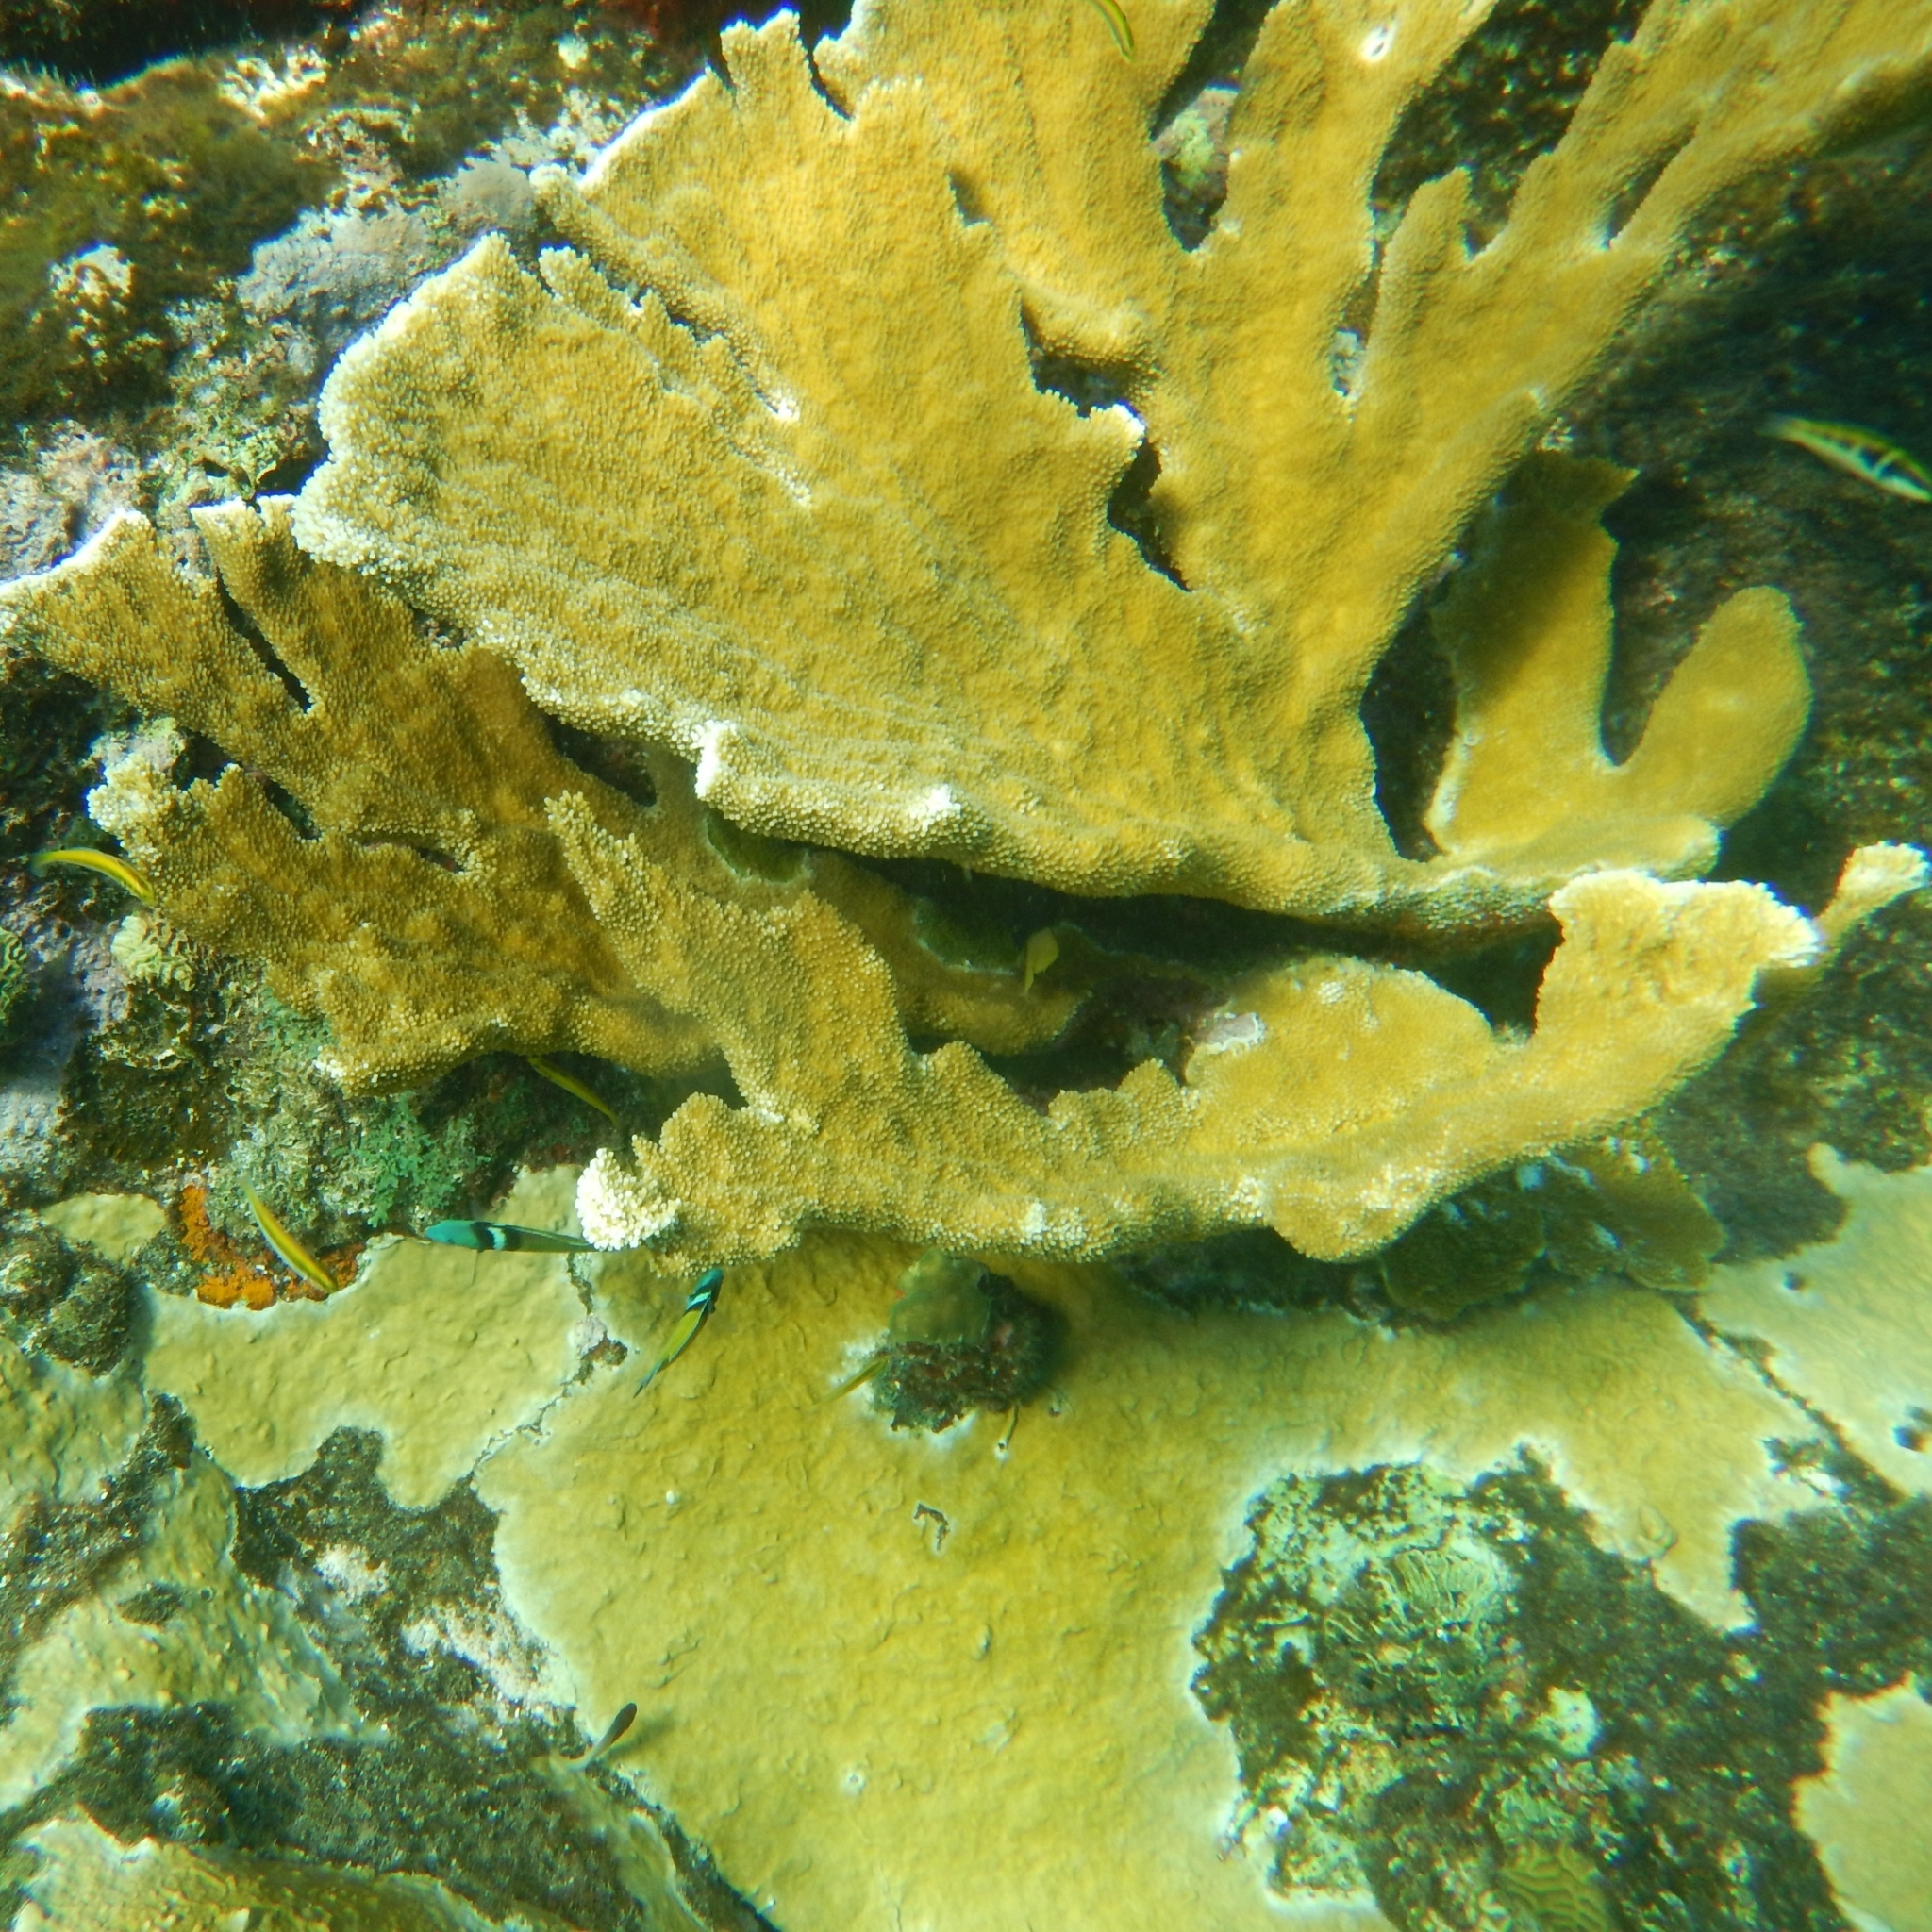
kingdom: Animalia
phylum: Cnidaria
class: Anthozoa
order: Scleractinia
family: Acroporidae
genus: Acropora
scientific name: Acropora palmata
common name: Elkhorn coral
